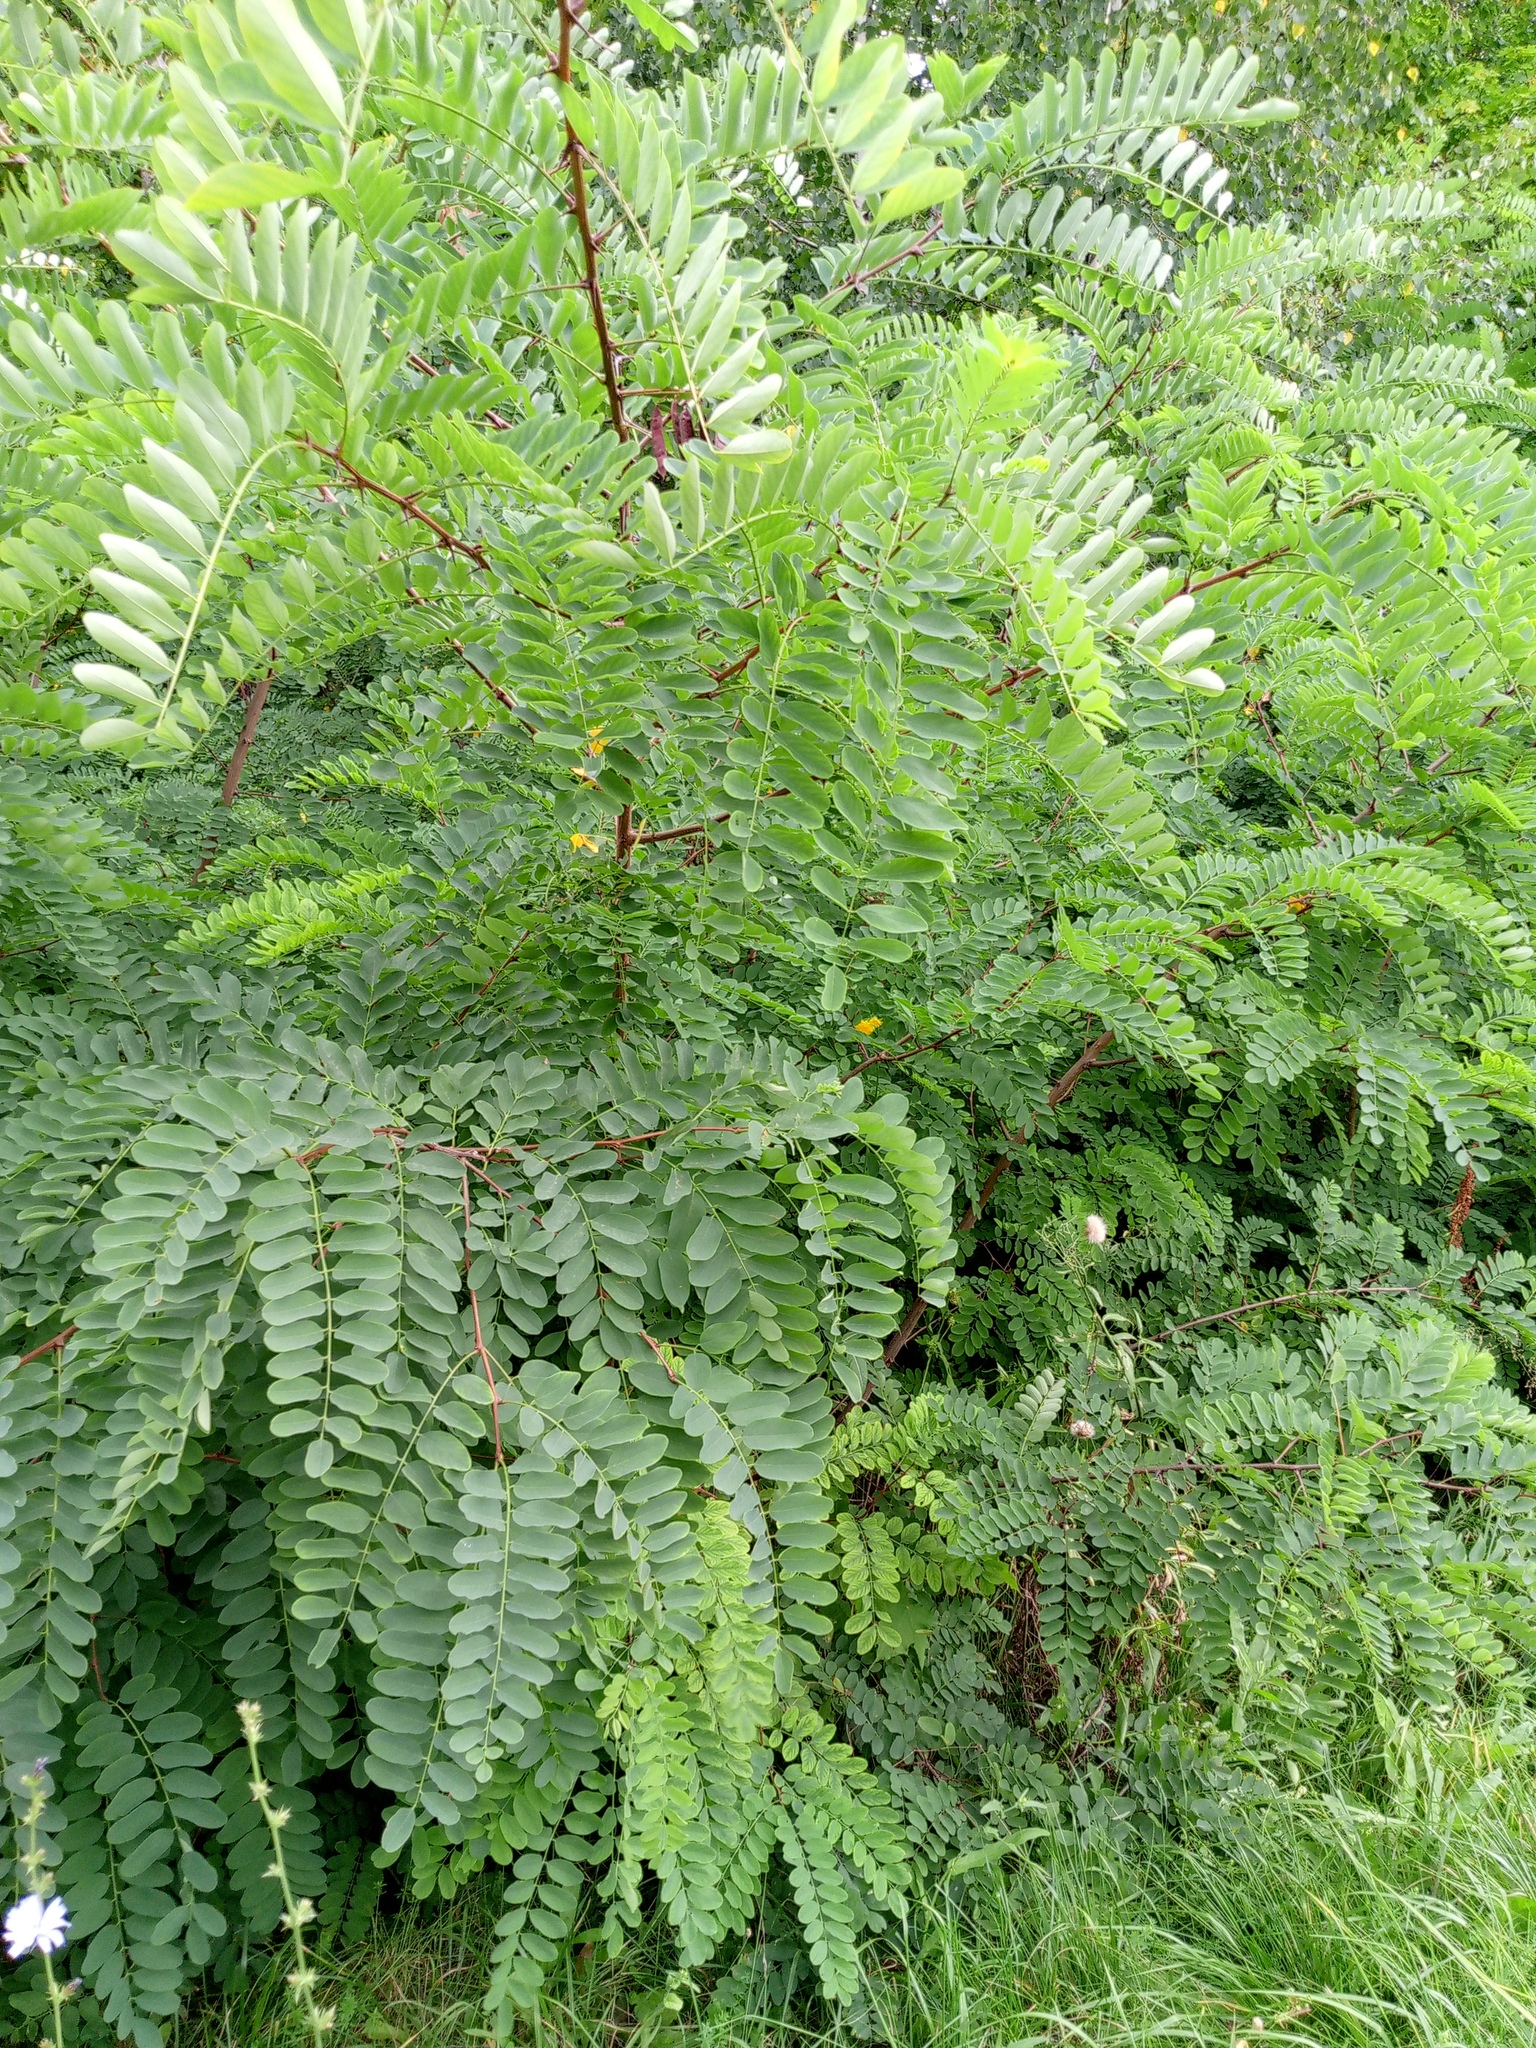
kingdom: Plantae
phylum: Tracheophyta
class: Magnoliopsida
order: Fabales
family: Fabaceae
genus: Robinia
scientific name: Robinia pseudoacacia
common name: Black locust
